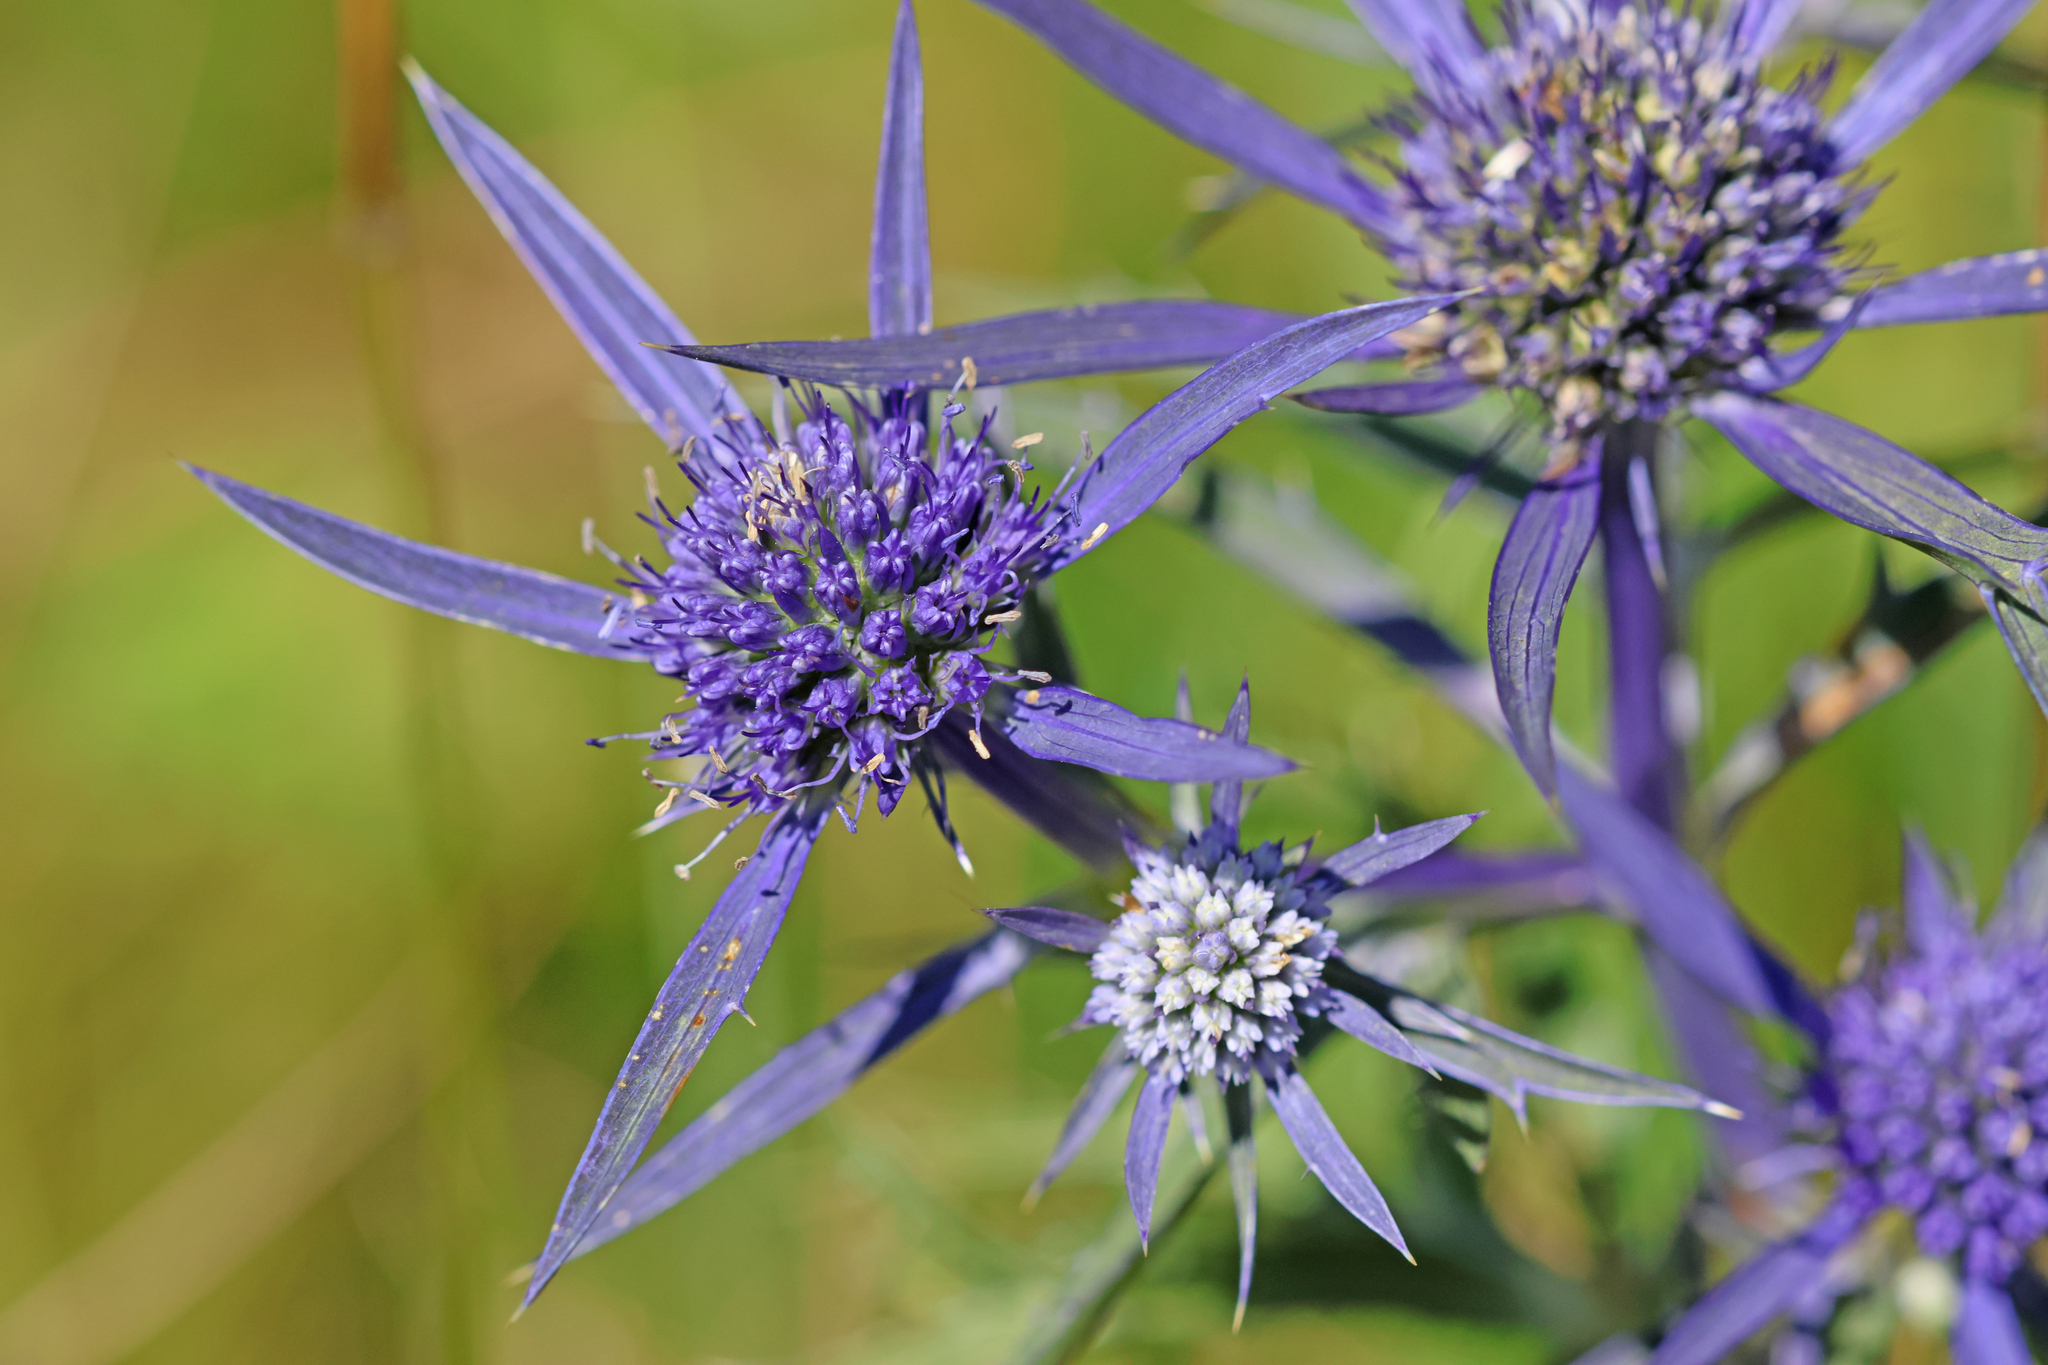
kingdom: Plantae
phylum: Tracheophyta
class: Magnoliopsida
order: Apiales
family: Apiaceae
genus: Eryngium
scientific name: Eryngium amethystinum
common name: Amethyst eryngo
